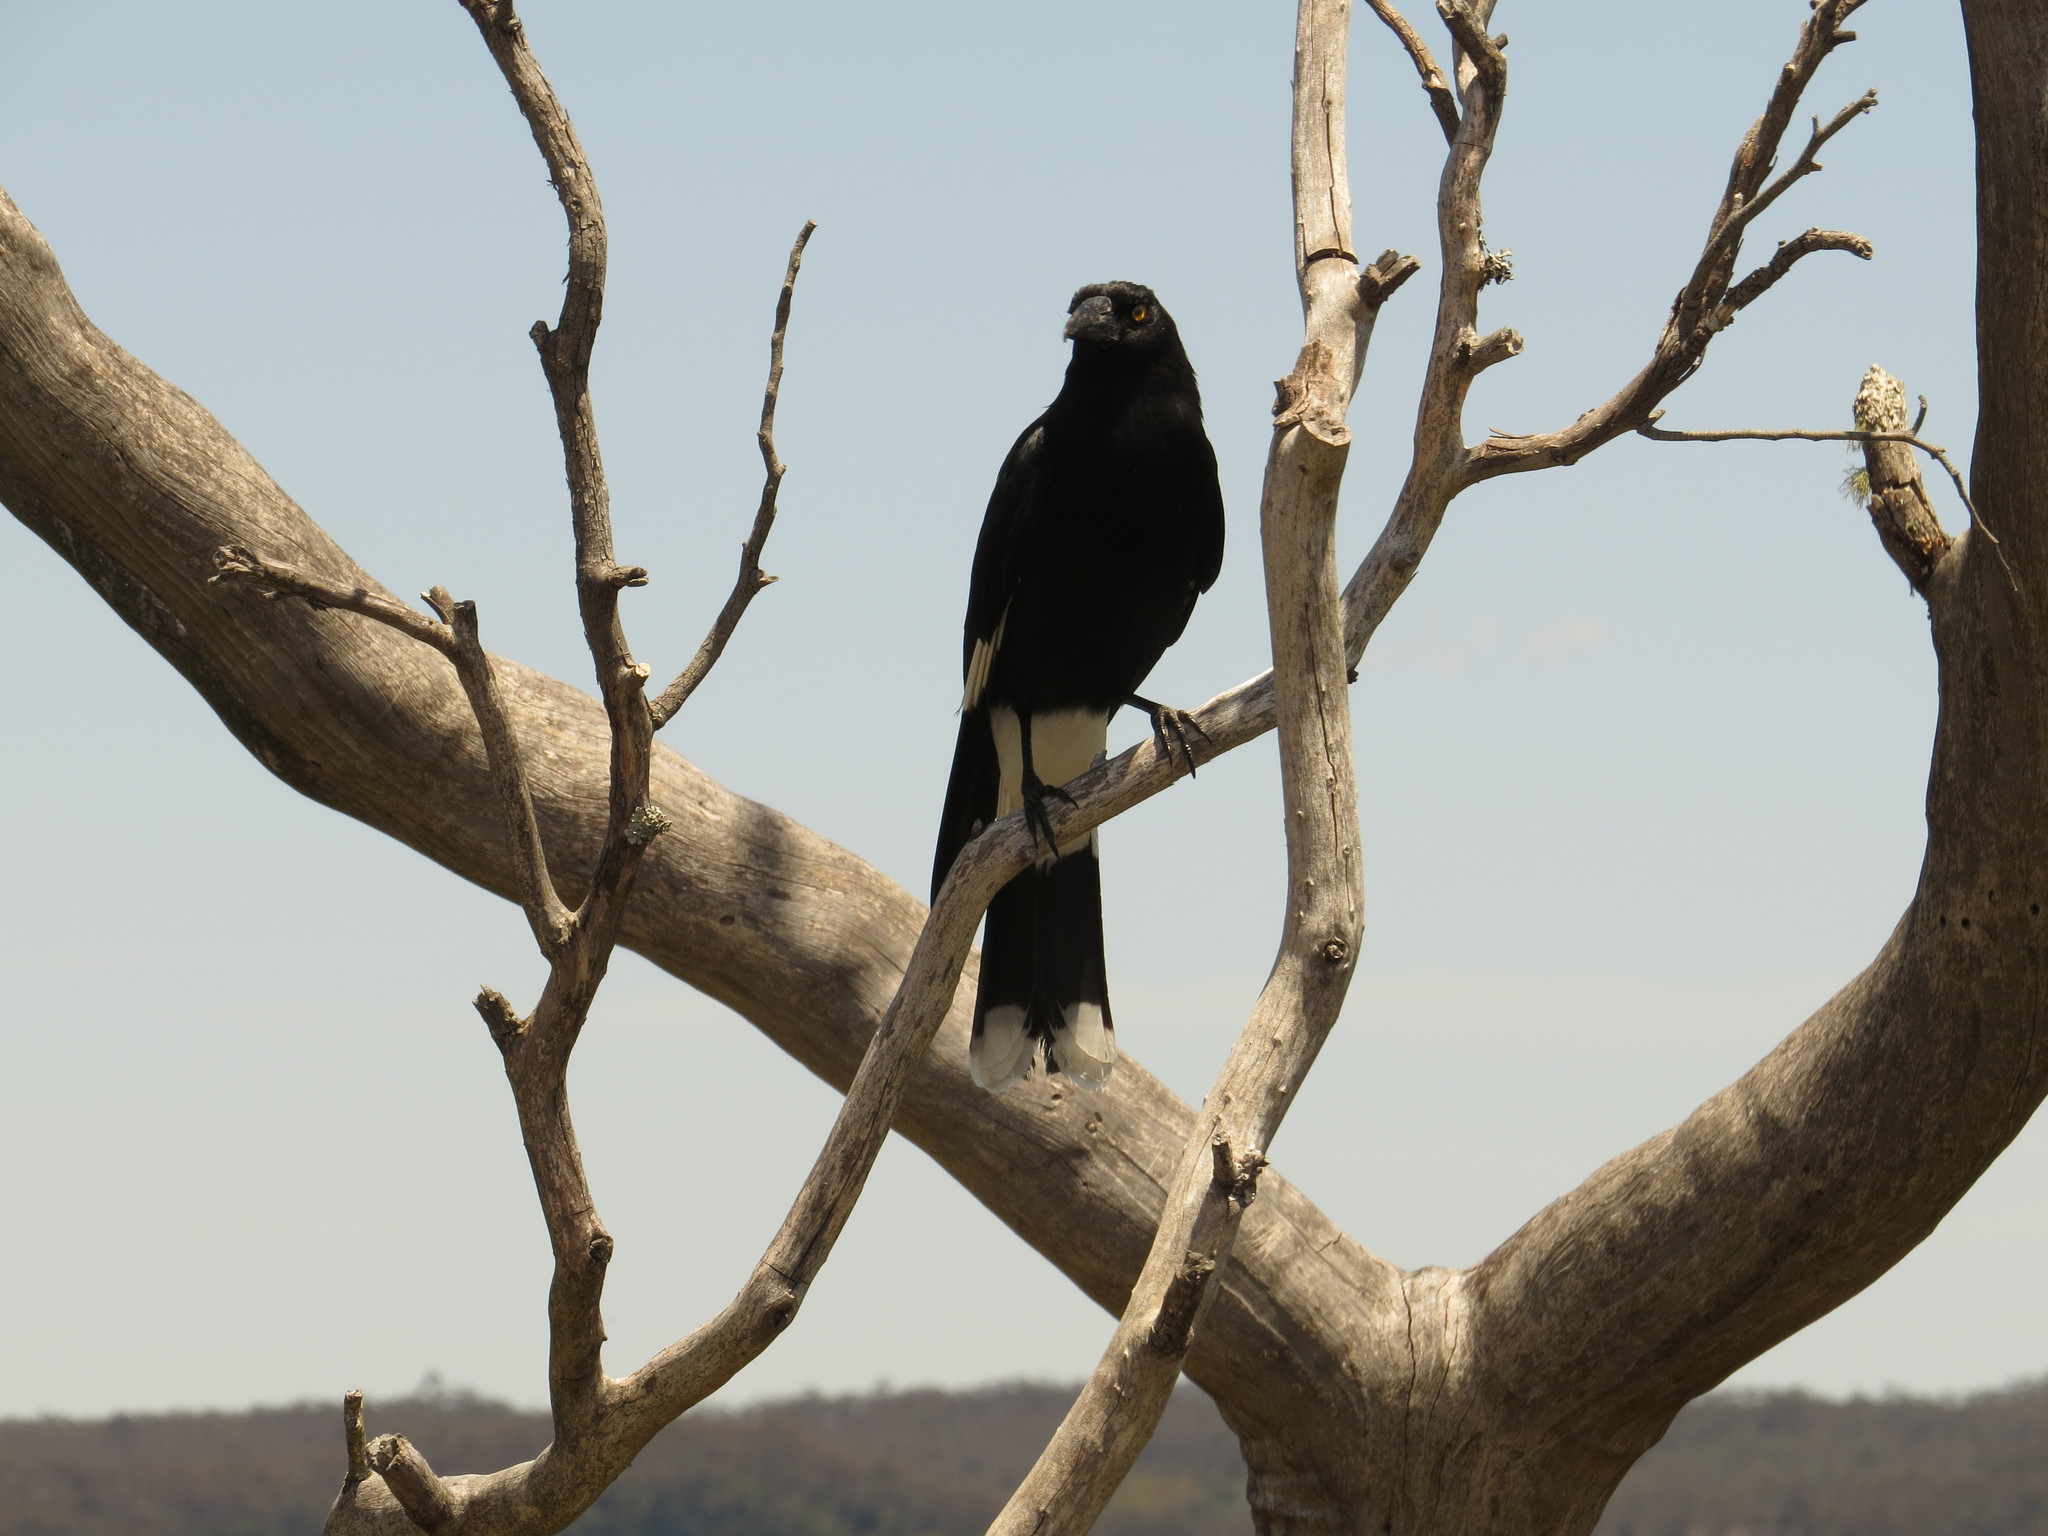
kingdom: Animalia
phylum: Chordata
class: Aves
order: Passeriformes
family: Cracticidae
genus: Strepera
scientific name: Strepera graculina
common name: Pied currawong
